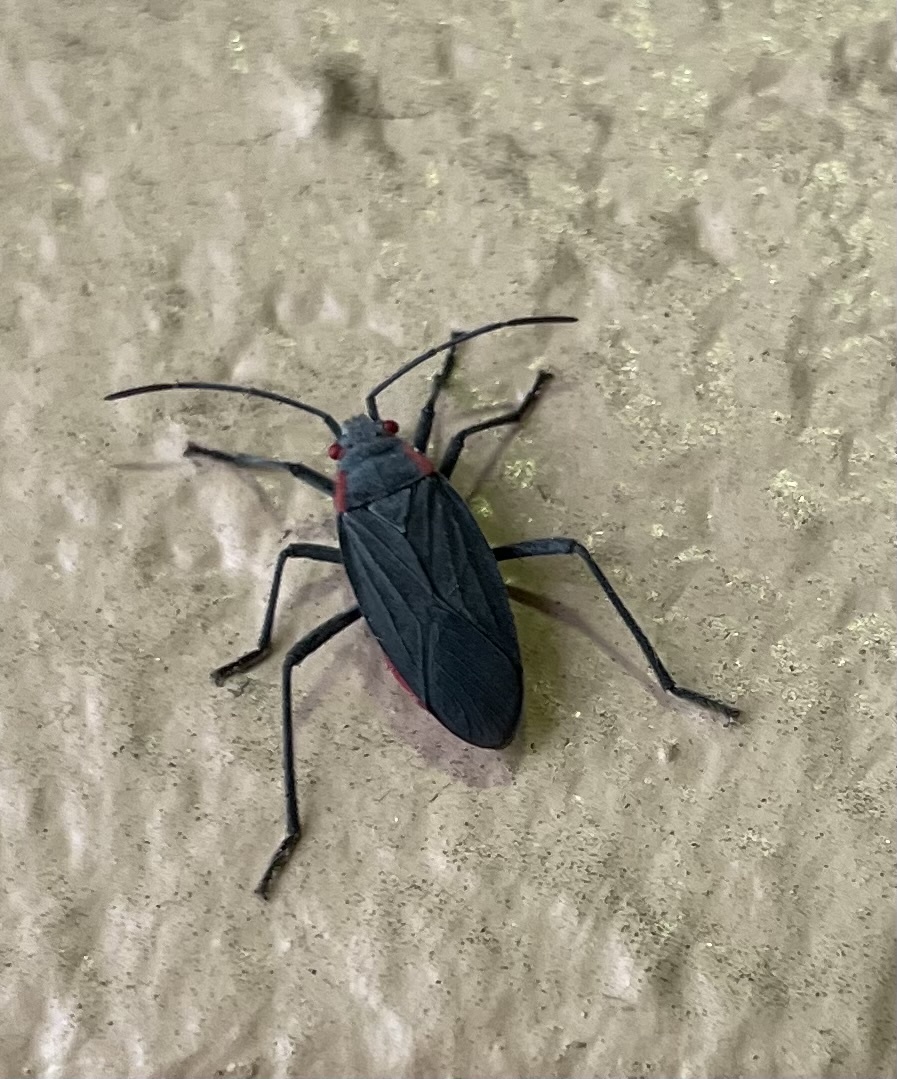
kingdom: Animalia
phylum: Arthropoda
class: Insecta
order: Hemiptera
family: Rhopalidae
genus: Jadera
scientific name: Jadera haematoloma
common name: Red-shouldered bug
